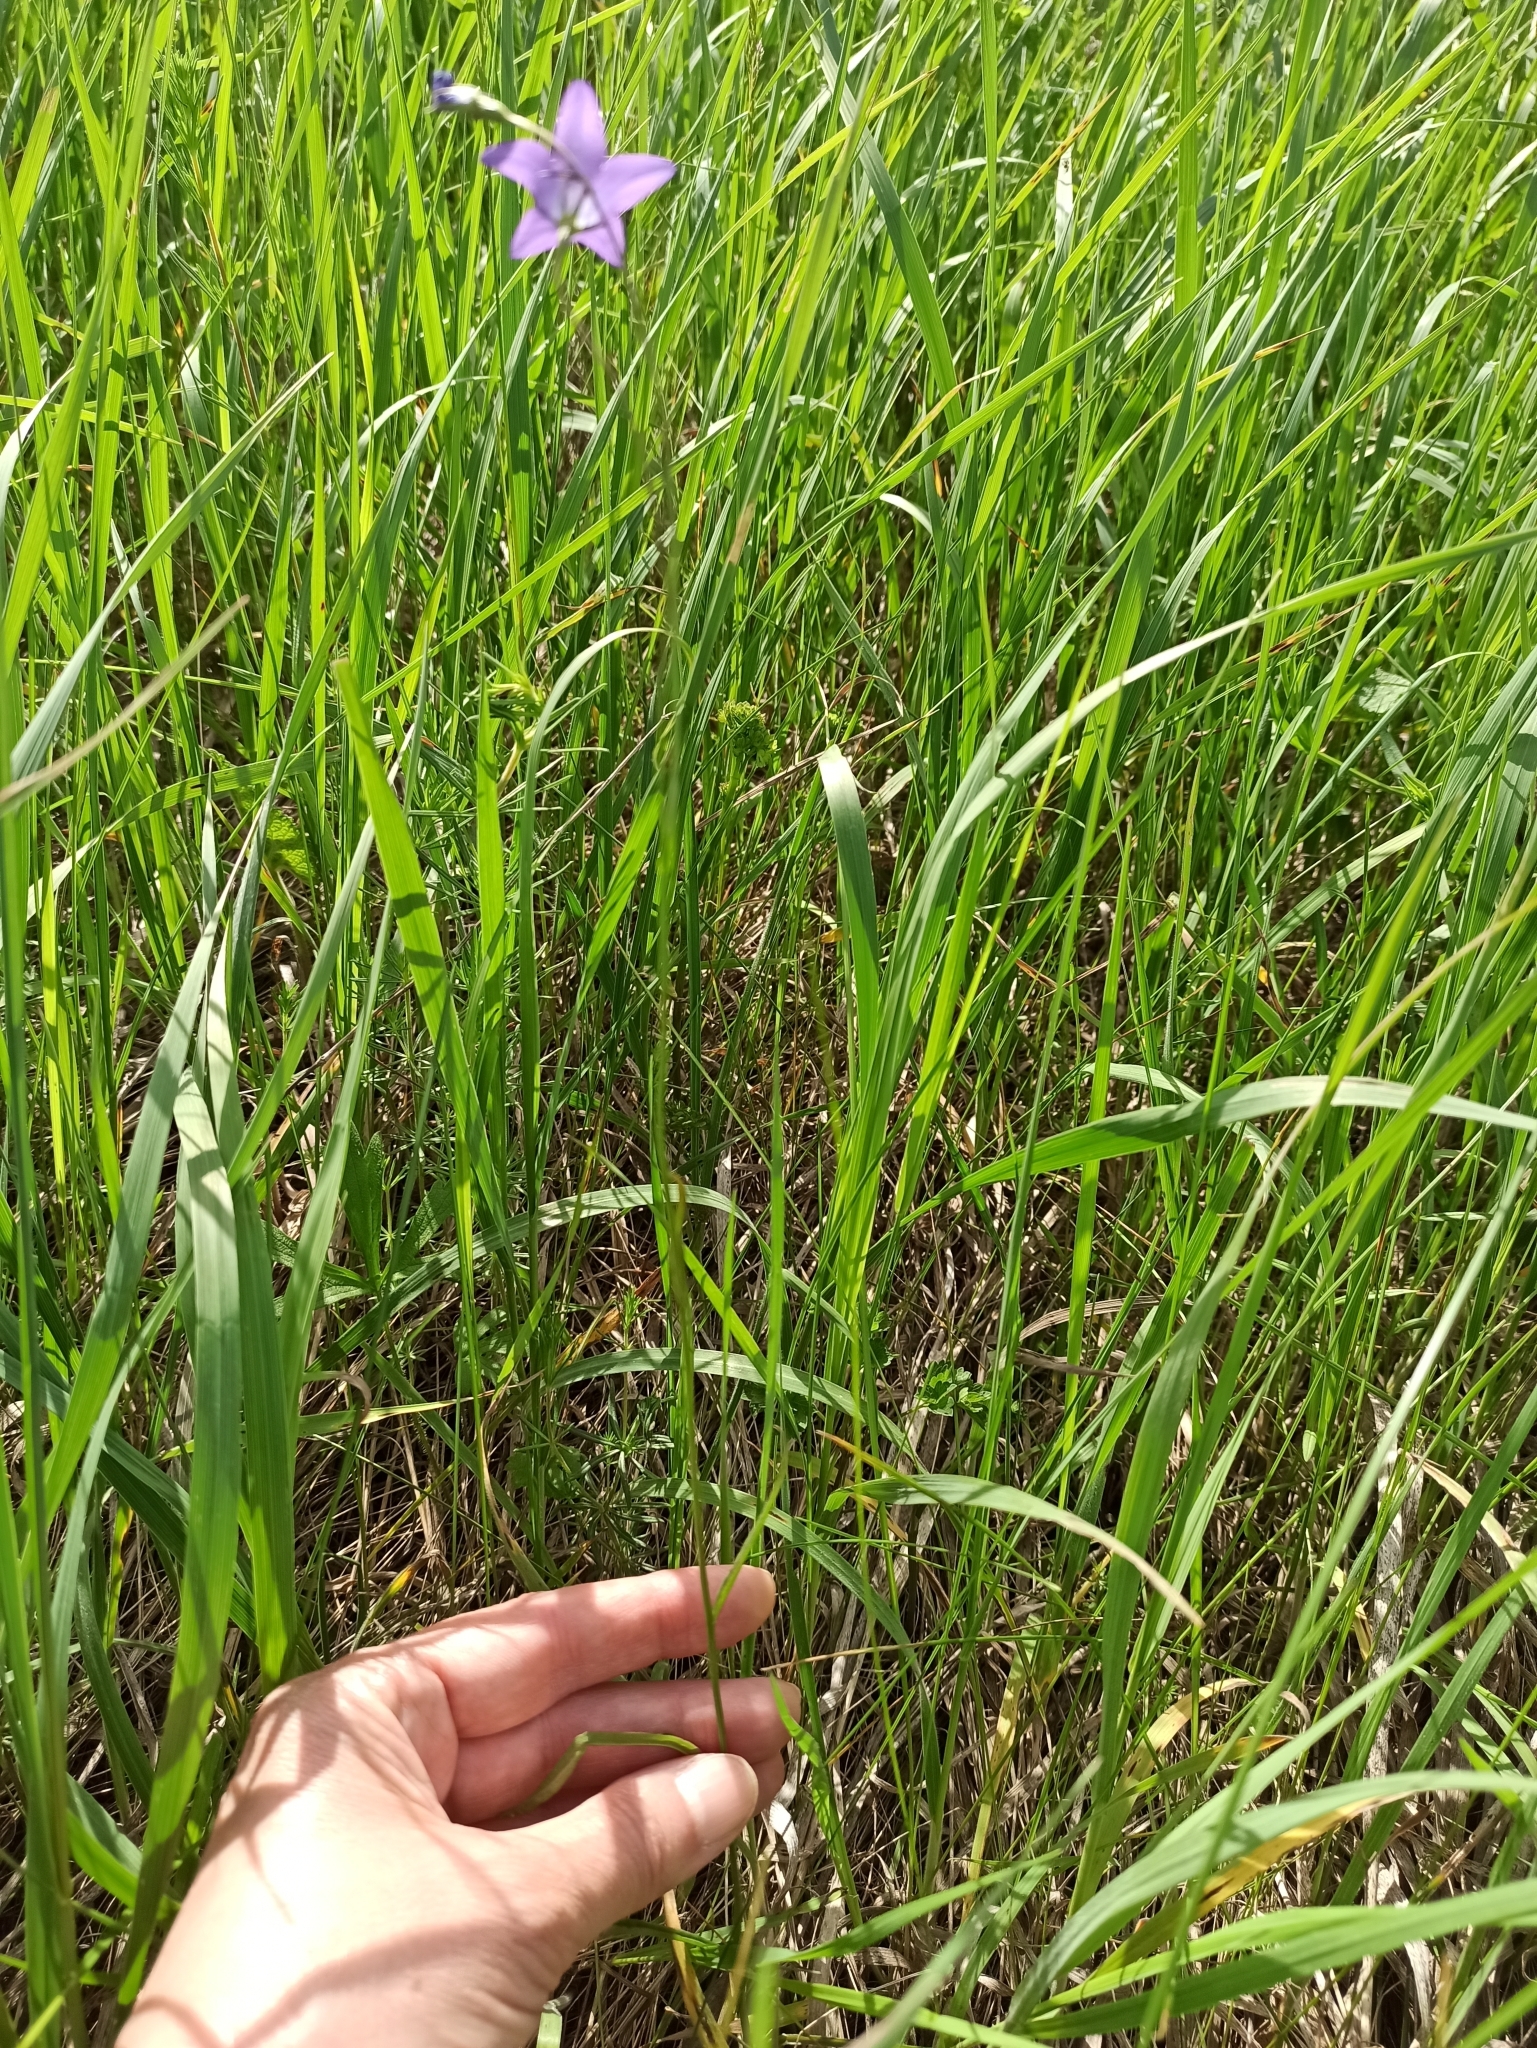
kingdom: Plantae
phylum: Tracheophyta
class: Magnoliopsida
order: Asterales
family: Campanulaceae
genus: Campanula
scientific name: Campanula stevenii
